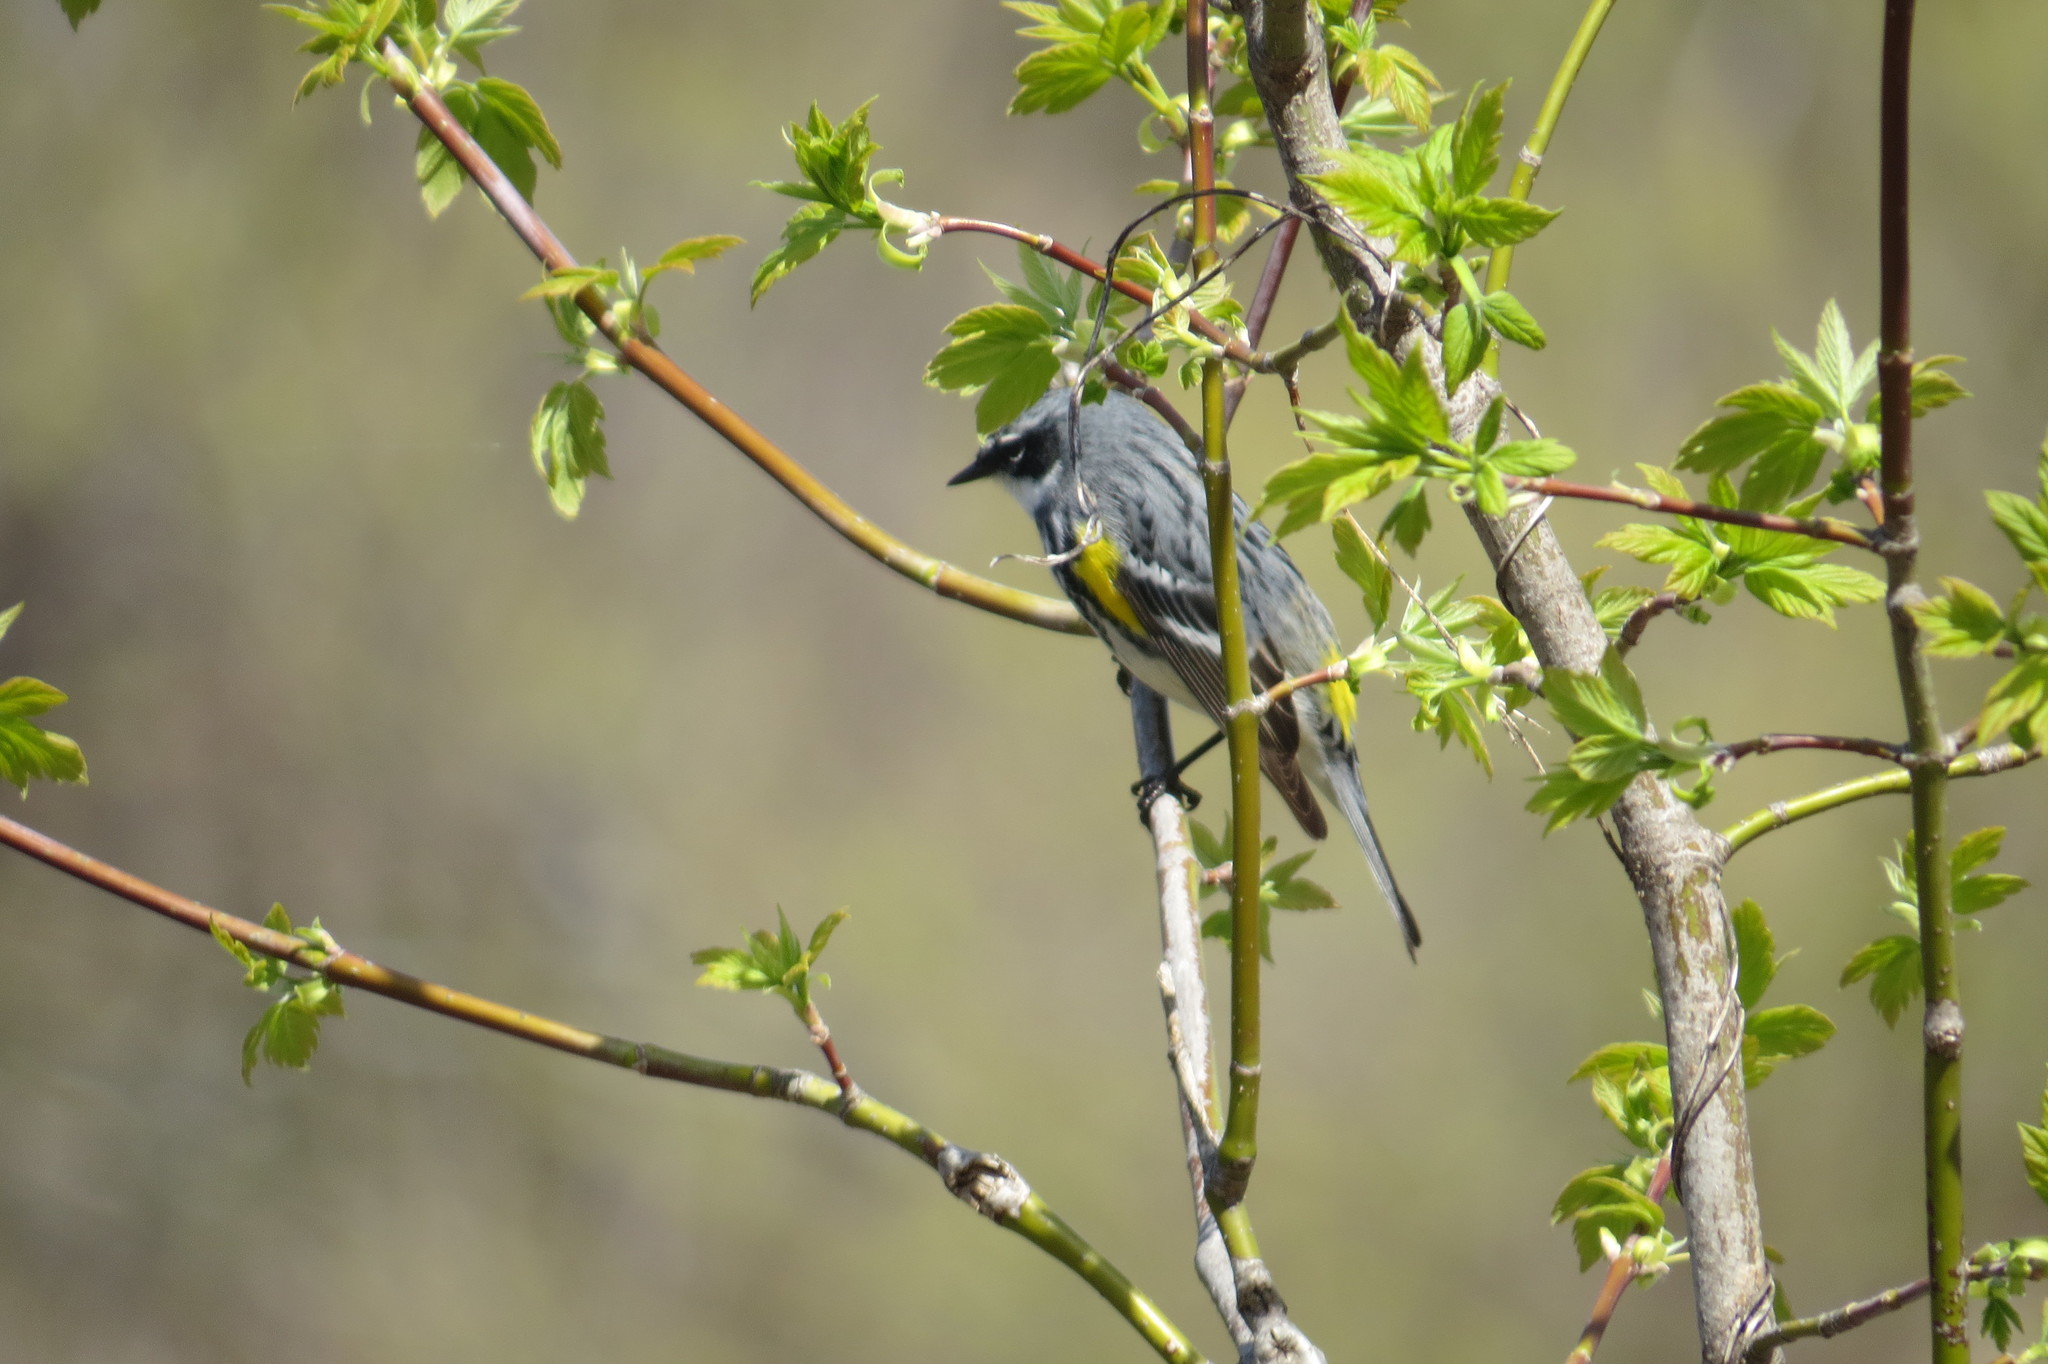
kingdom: Animalia
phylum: Chordata
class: Aves
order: Passeriformes
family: Parulidae
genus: Setophaga
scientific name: Setophaga coronata
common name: Myrtle warbler
